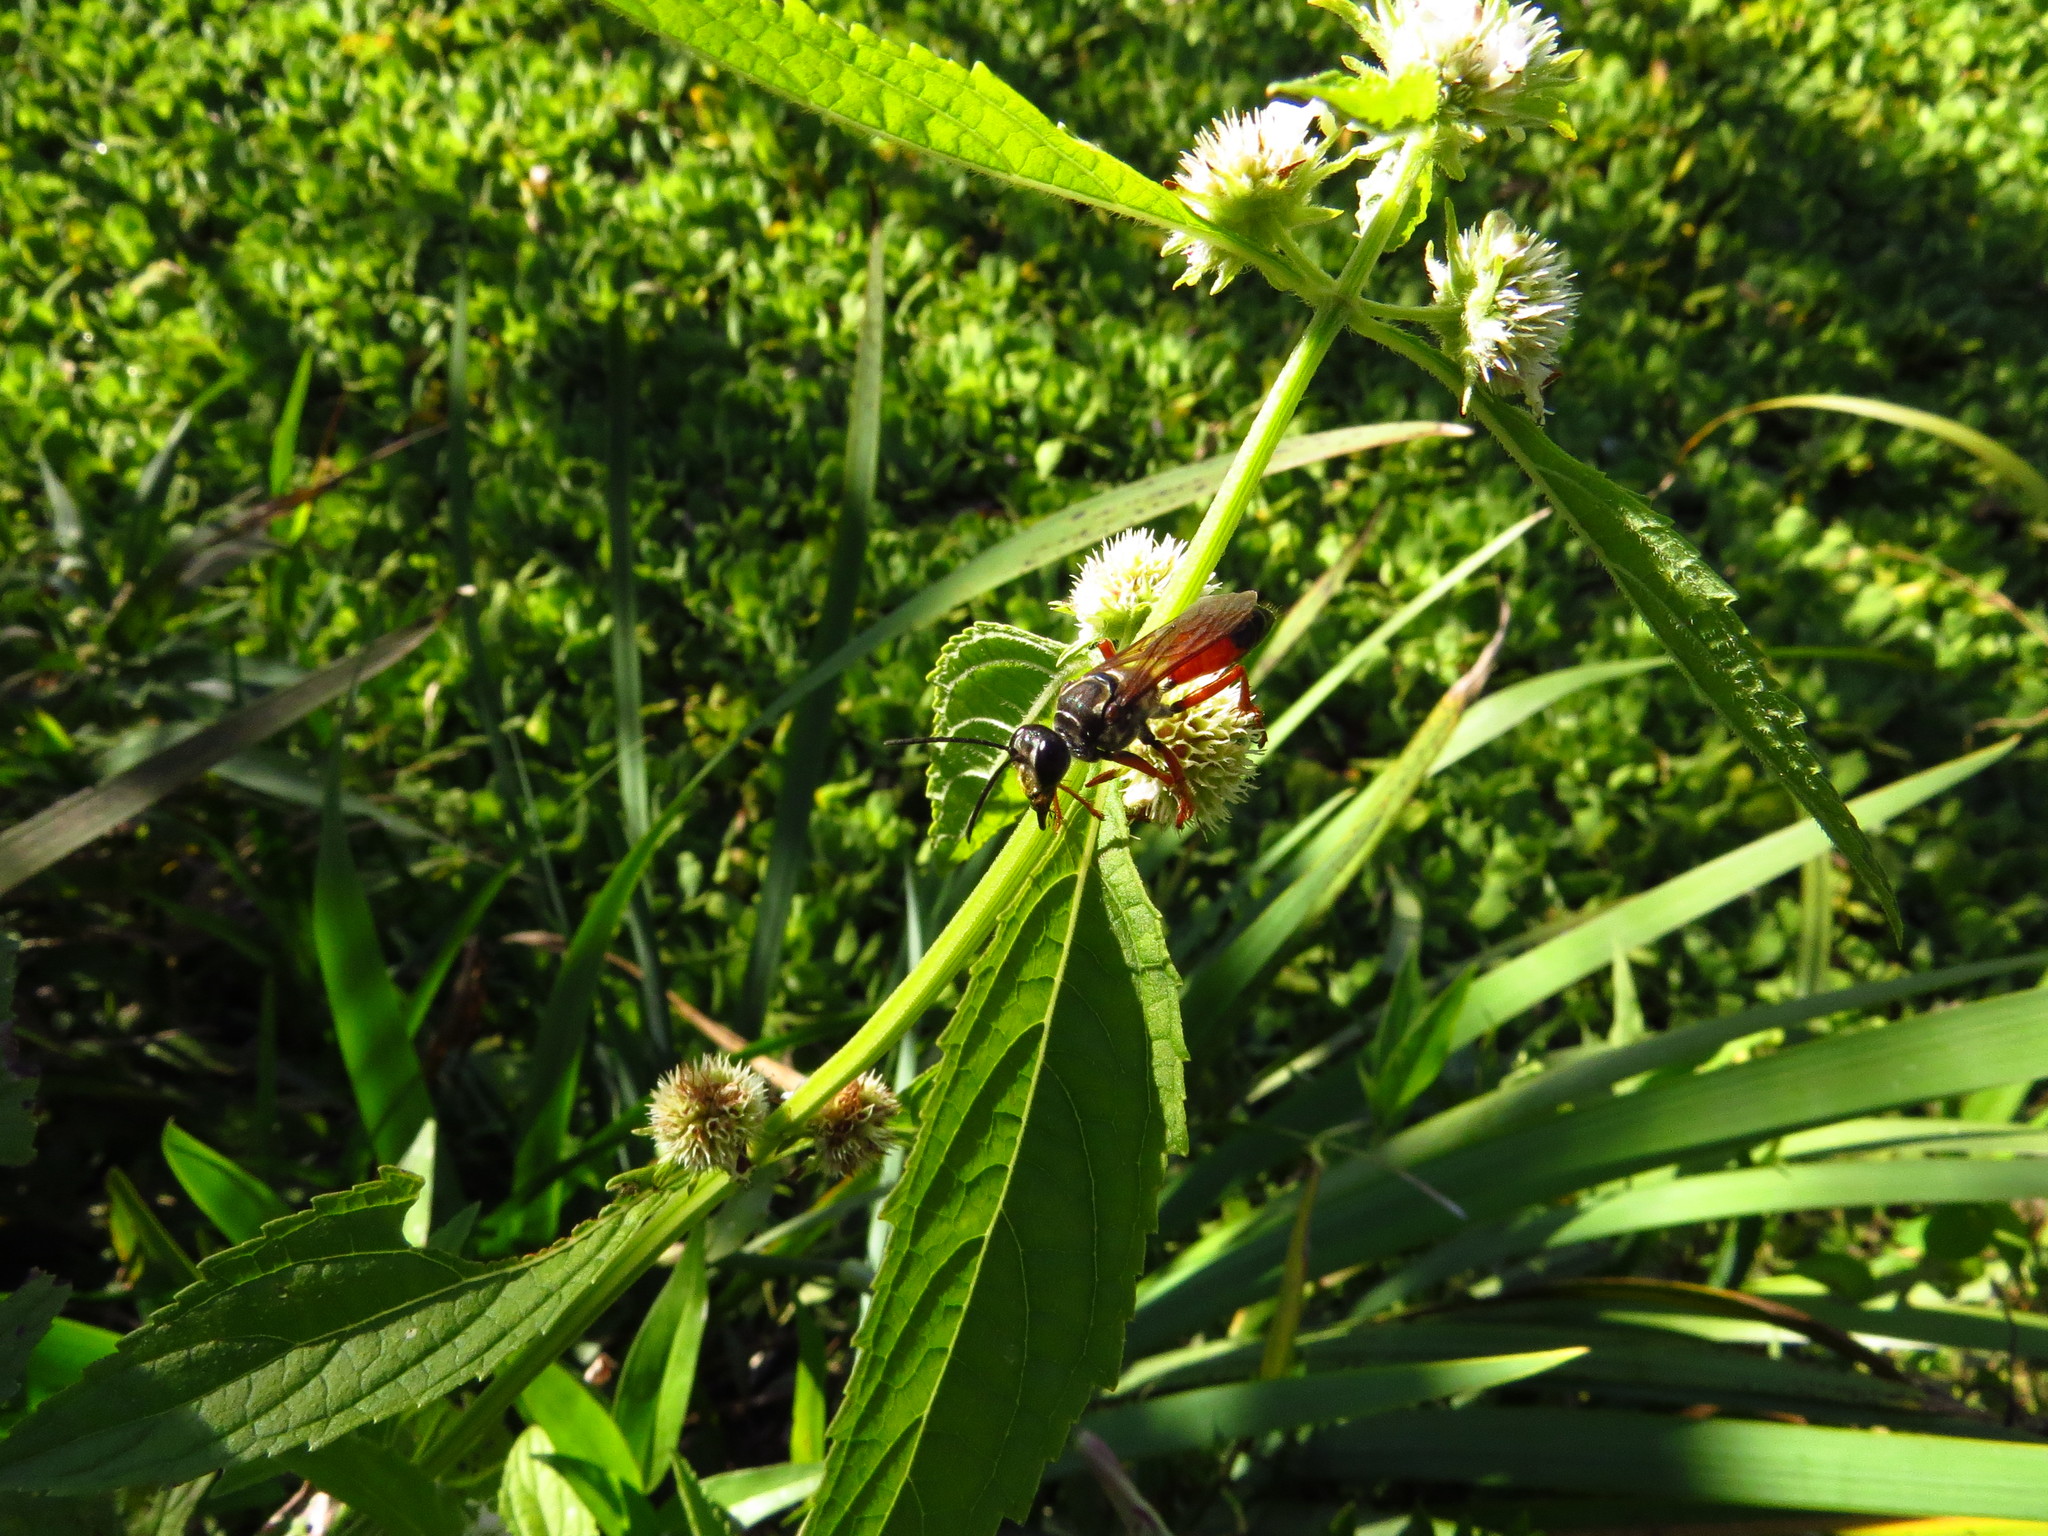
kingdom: Animalia
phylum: Arthropoda
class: Insecta
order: Hymenoptera
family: Sphecidae
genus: Sphex
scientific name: Sphex ichneumoneus
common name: Great golden digger wasp
